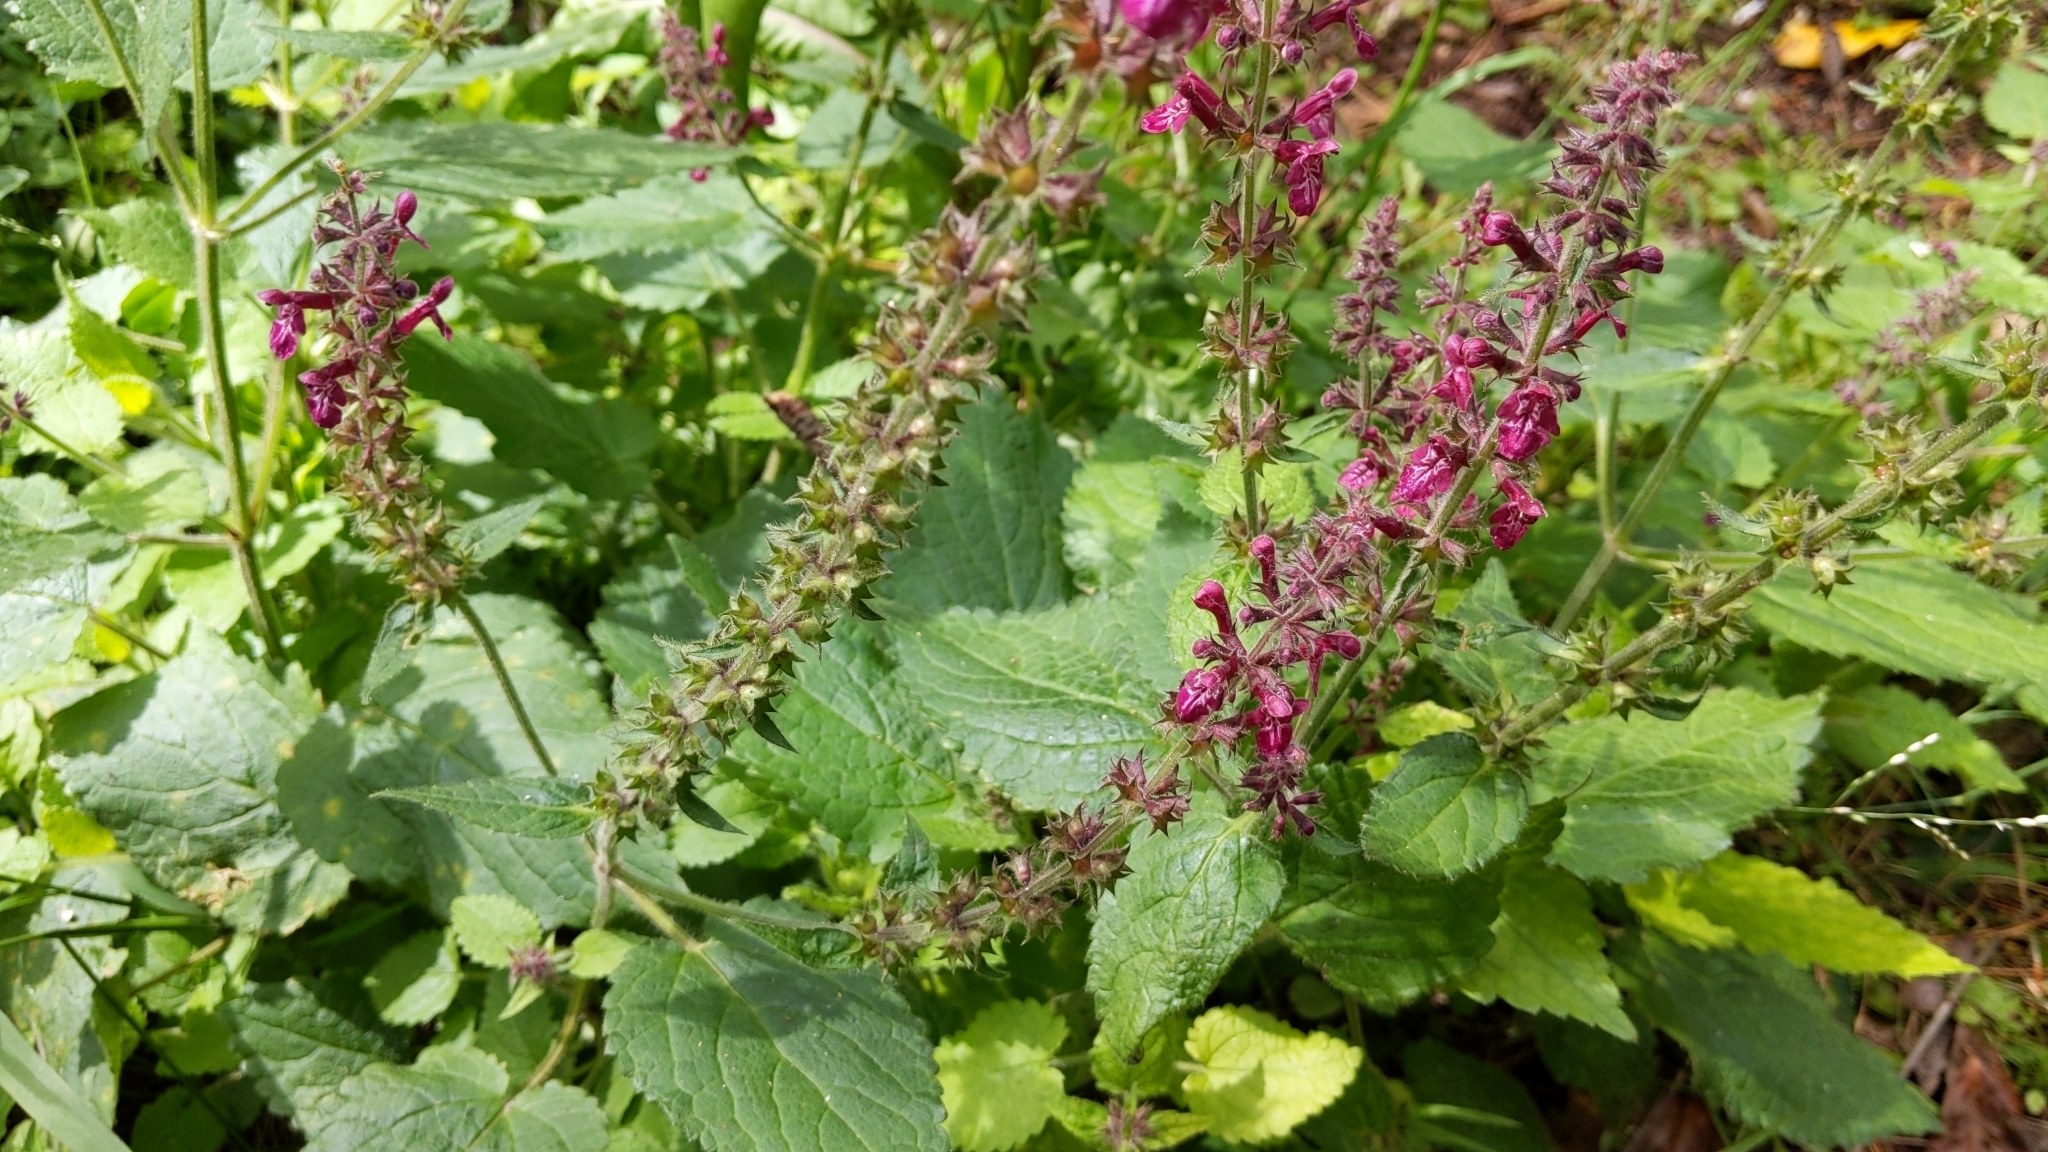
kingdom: Plantae
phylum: Tracheophyta
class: Magnoliopsida
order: Lamiales
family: Lamiaceae
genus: Stachys
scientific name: Stachys sylvatica
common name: Hedge woundwort
